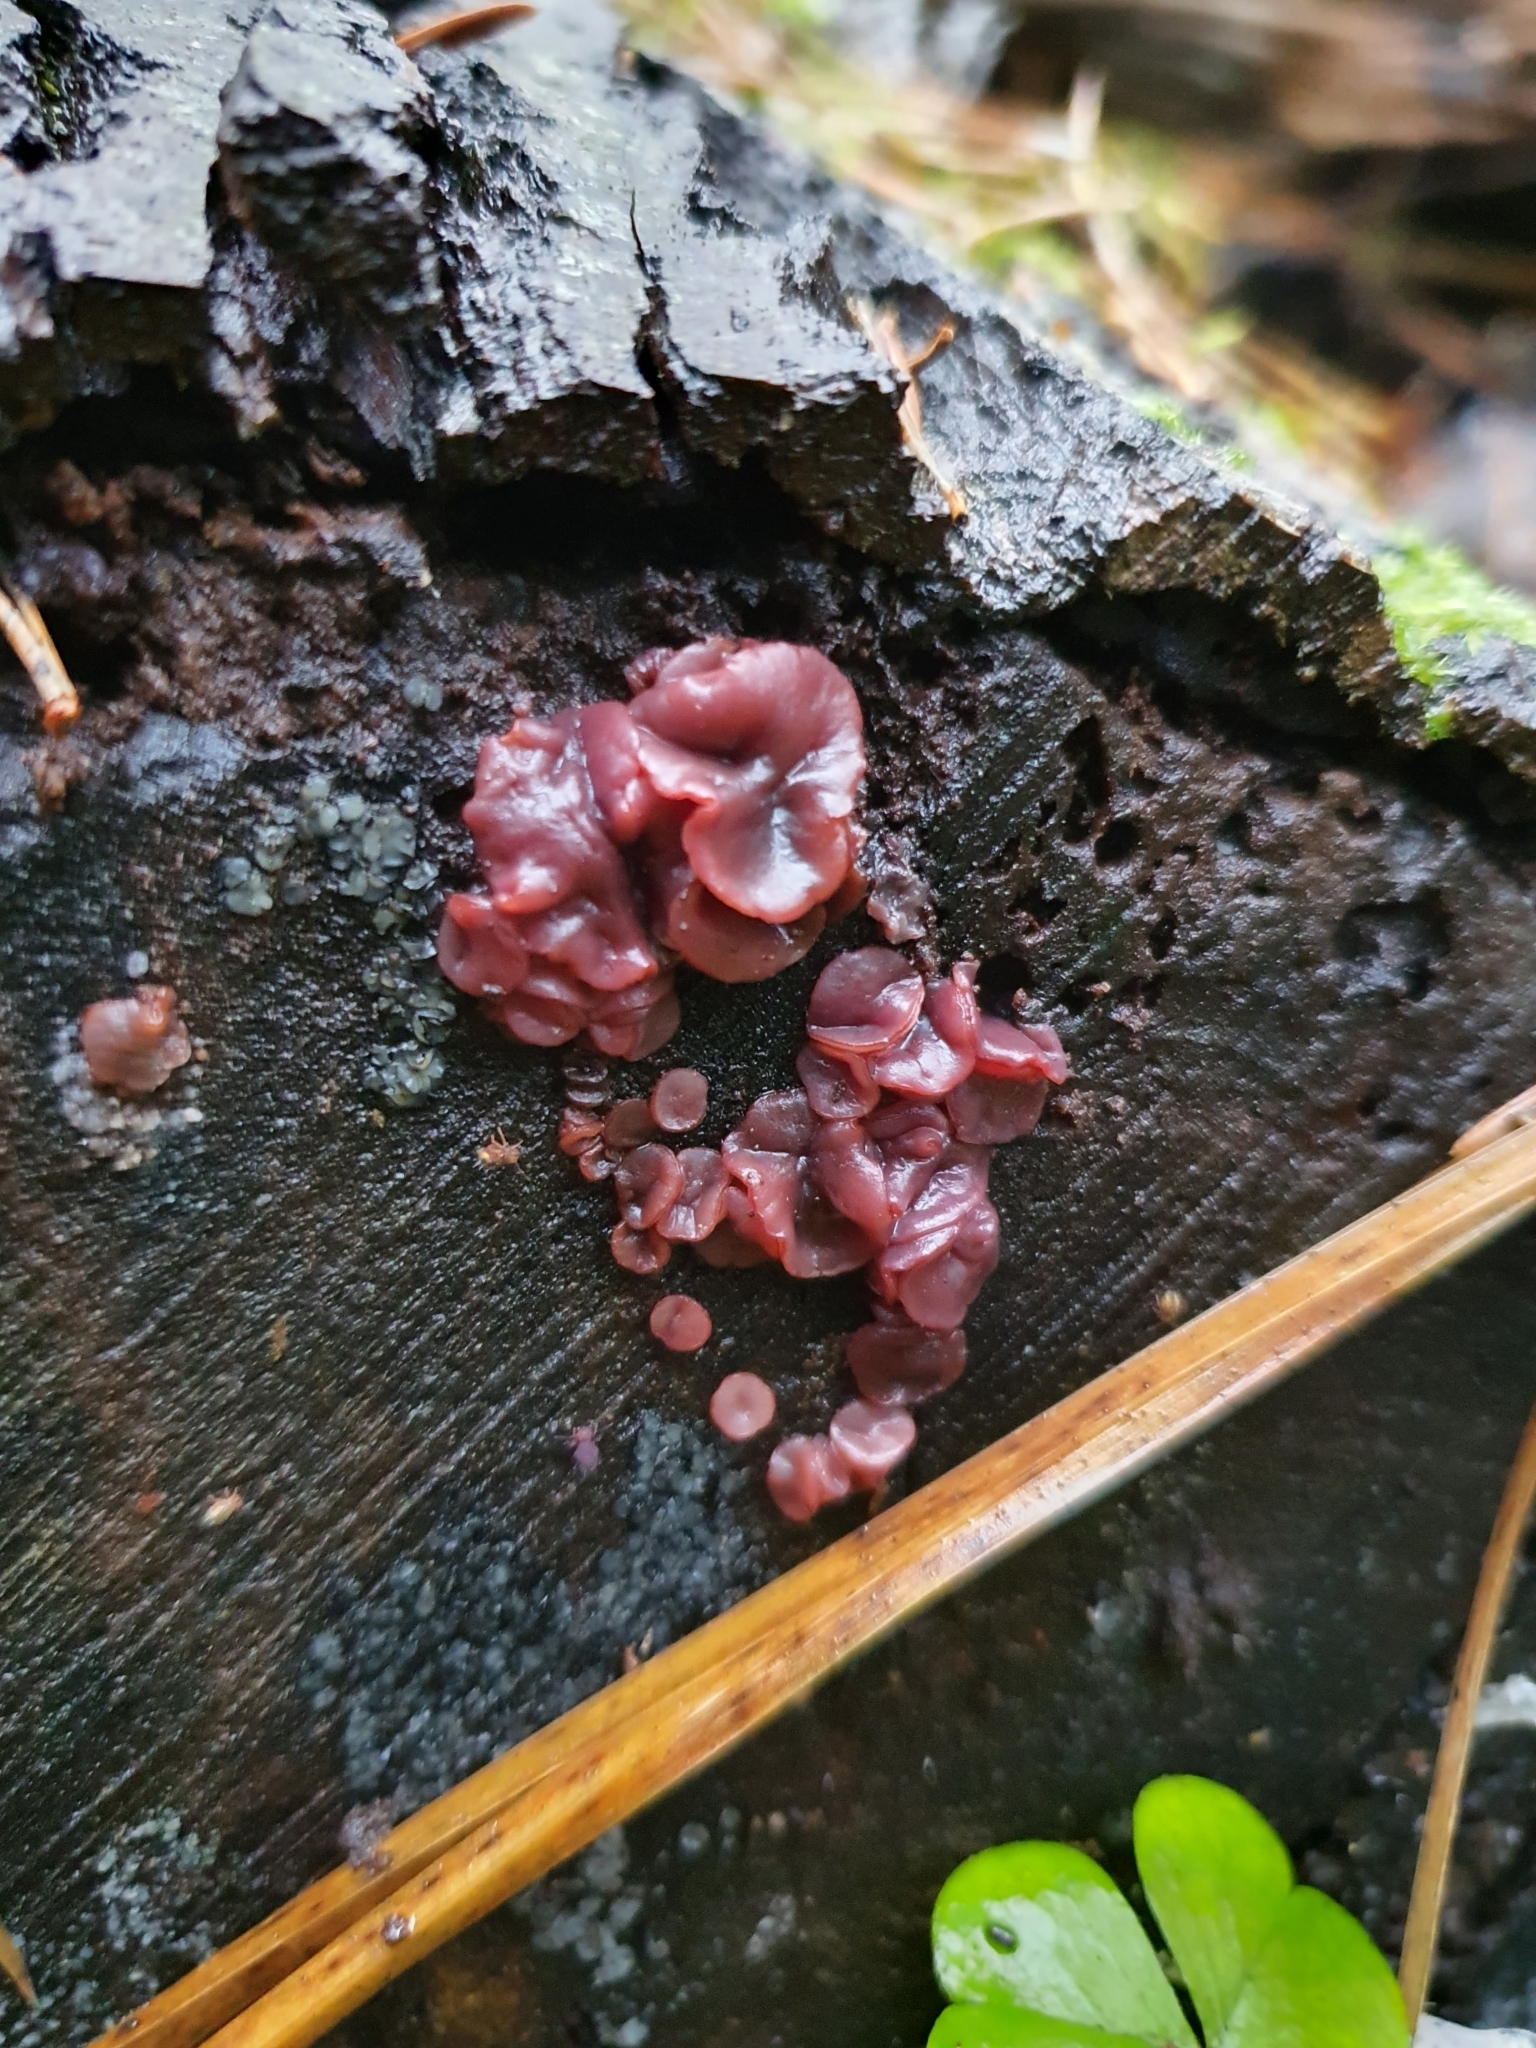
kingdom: Fungi
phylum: Ascomycota
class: Leotiomycetes
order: Helotiales
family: Gelatinodiscaceae
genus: Ascocoryne
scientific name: Ascocoryne sarcoides
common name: Purple jellydisc
